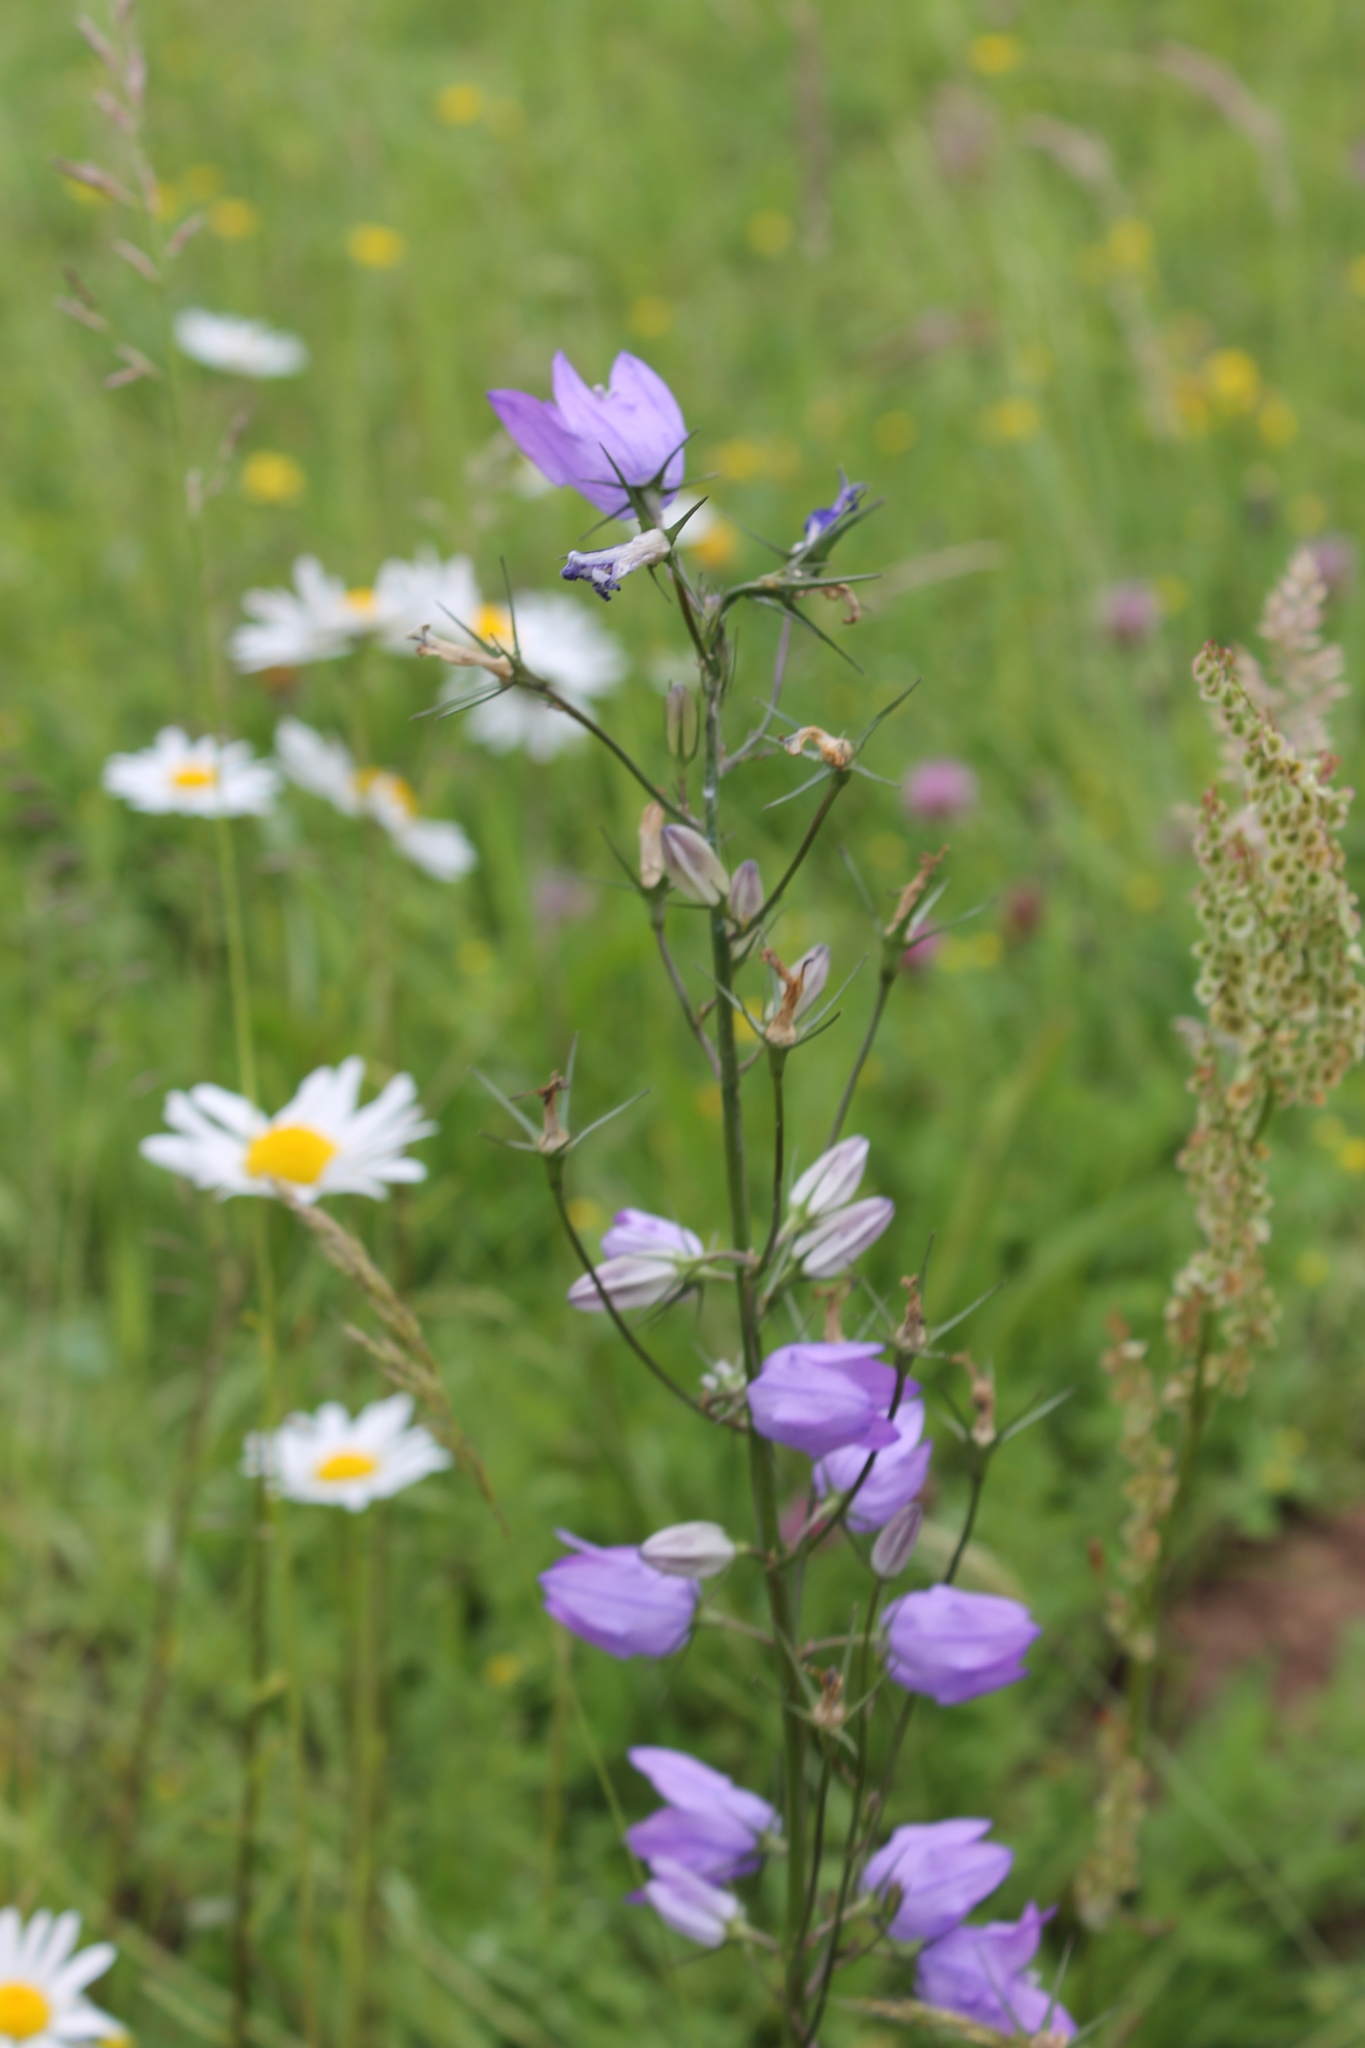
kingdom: Plantae
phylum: Tracheophyta
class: Magnoliopsida
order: Asterales
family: Campanulaceae
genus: Campanula
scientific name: Campanula rapunculus
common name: Rampion bellflower
